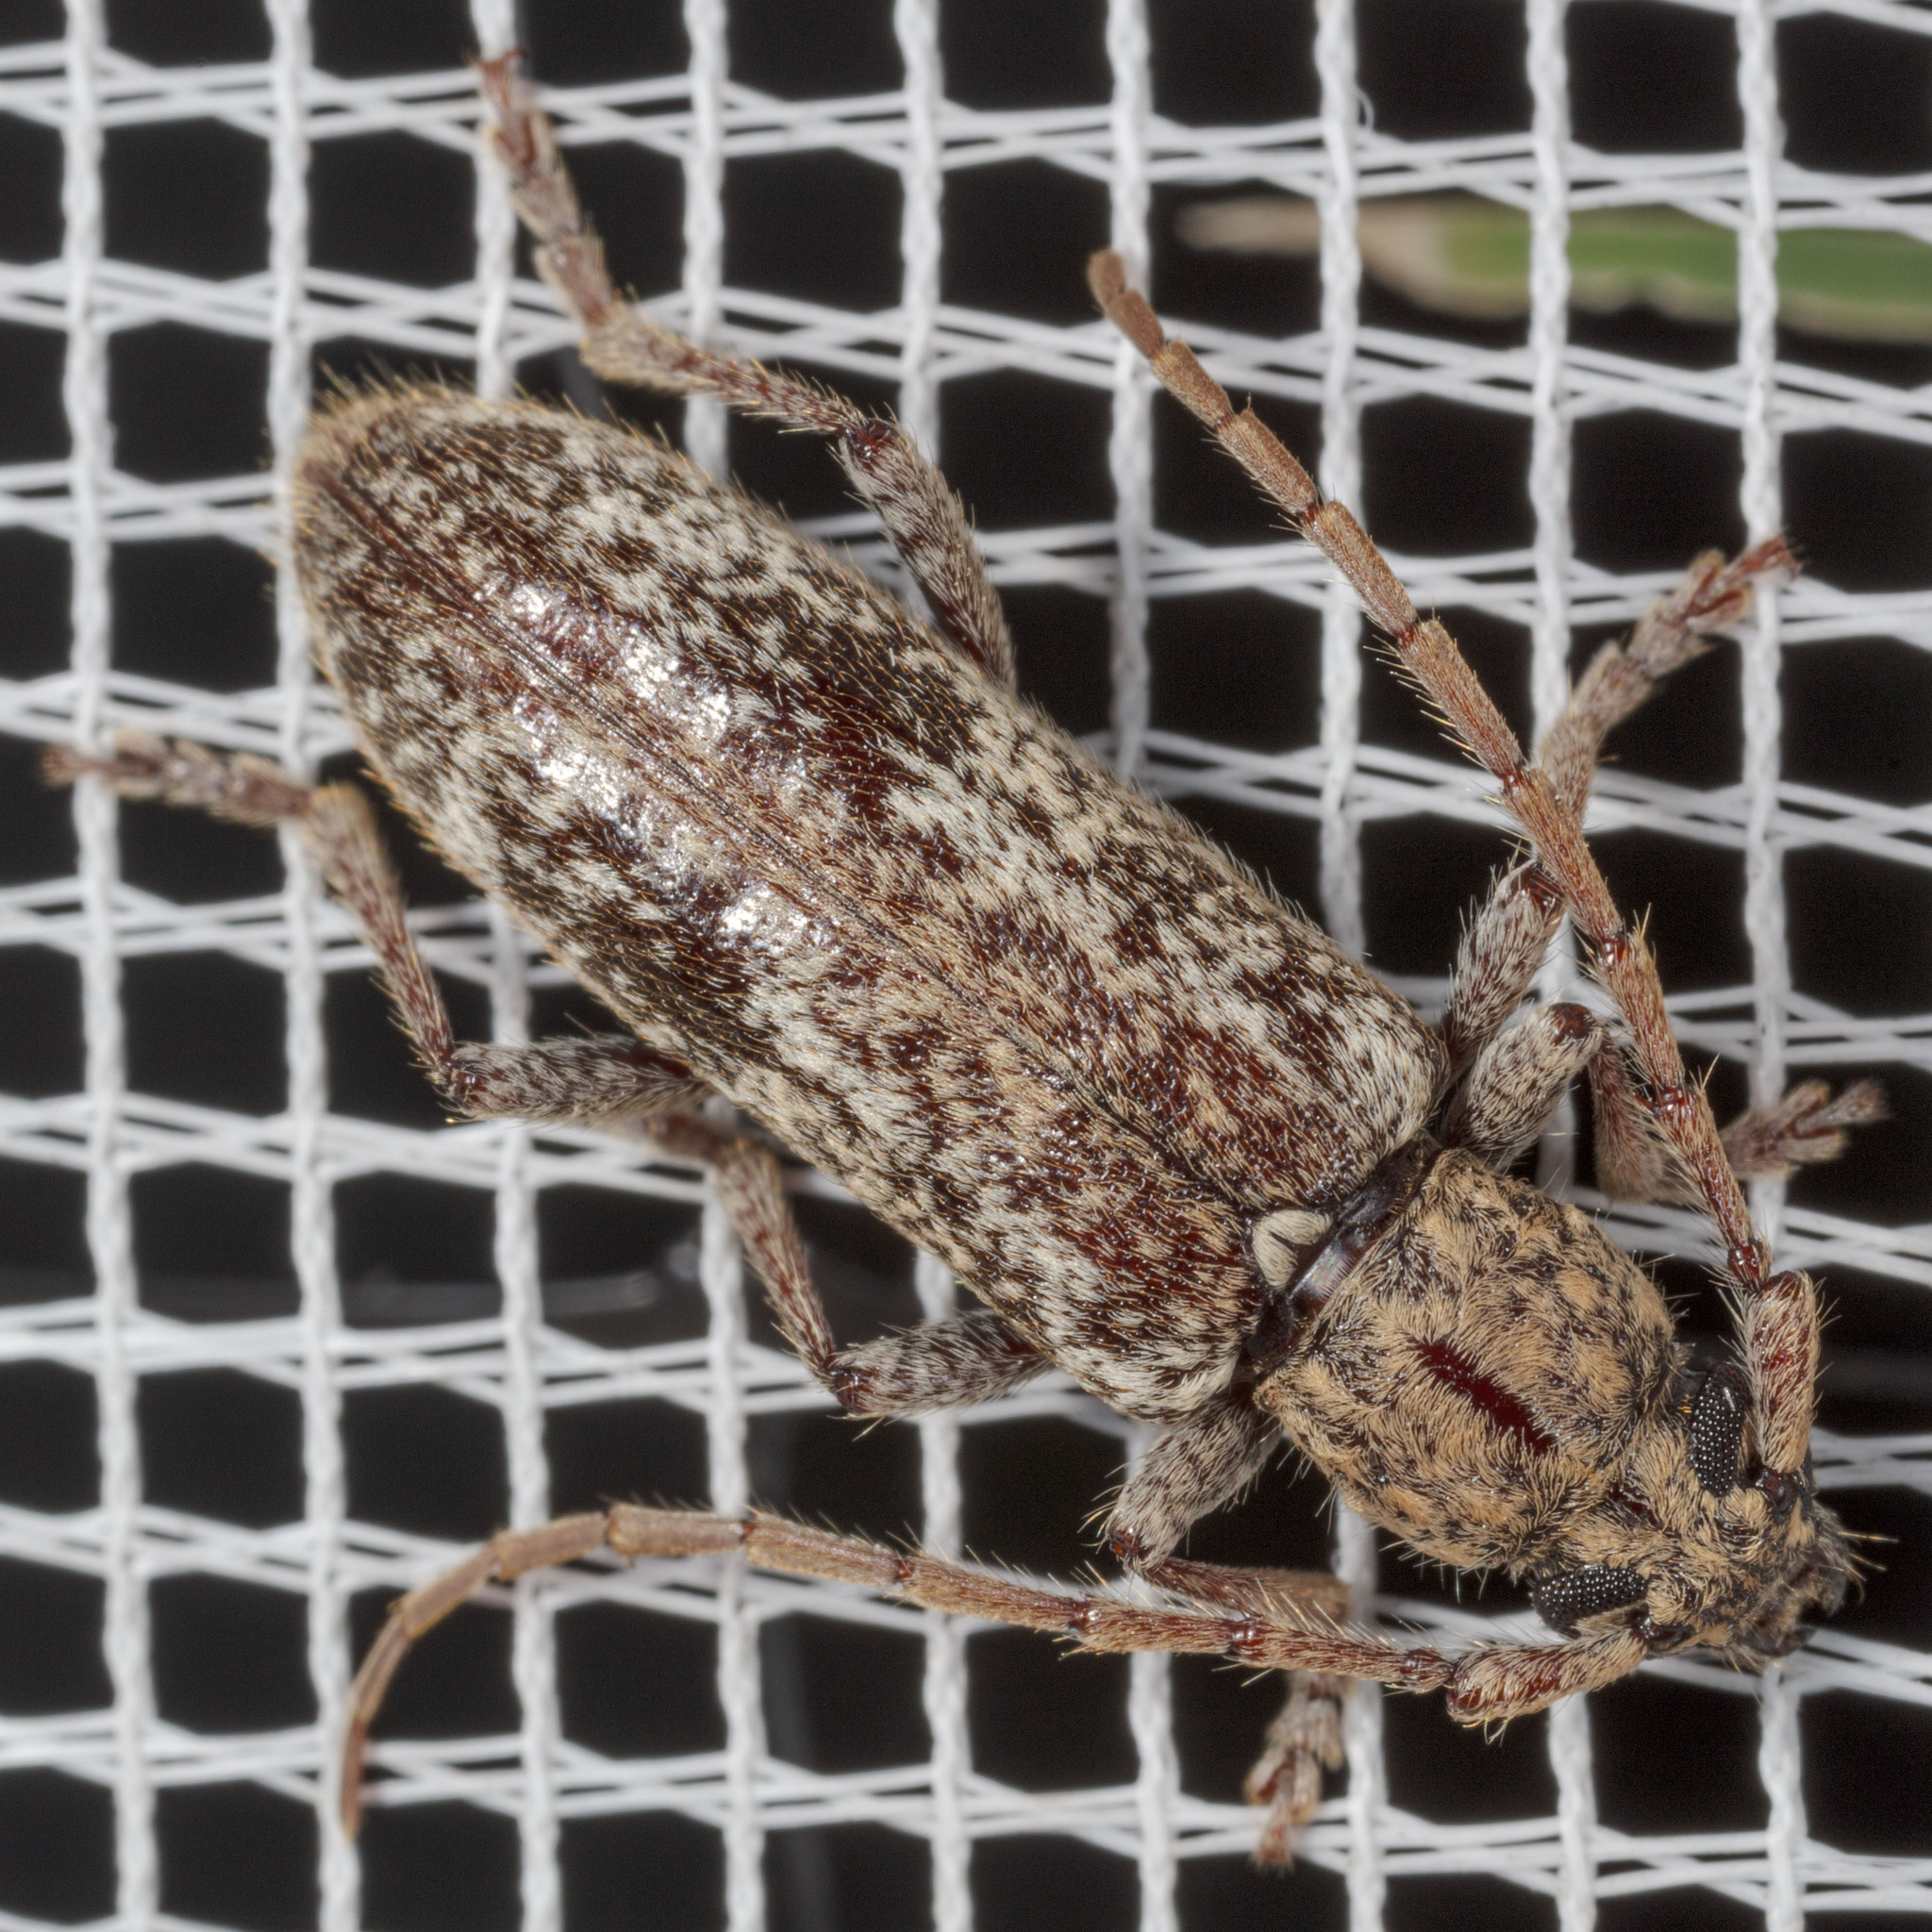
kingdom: Animalia
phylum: Arthropoda
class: Insecta
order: Coleoptera
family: Cerambycidae
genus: Anelaphus
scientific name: Anelaphus debilis
